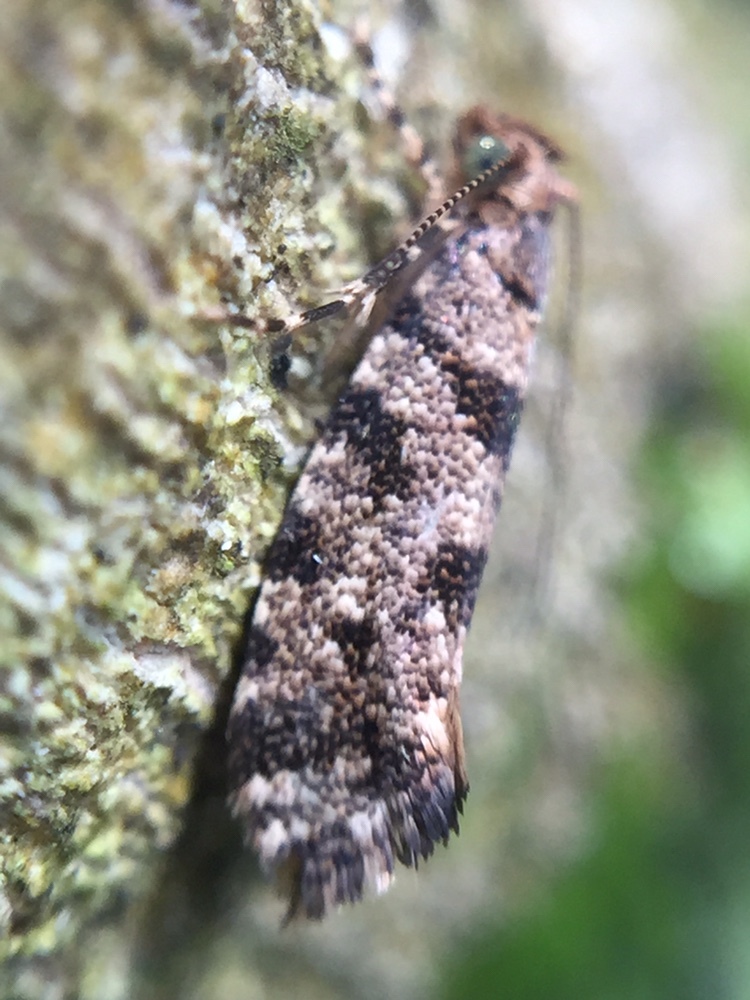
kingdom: Animalia
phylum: Arthropoda
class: Insecta
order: Lepidoptera
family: Tineidae
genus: Parochmastis
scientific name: Parochmastis hilderi
